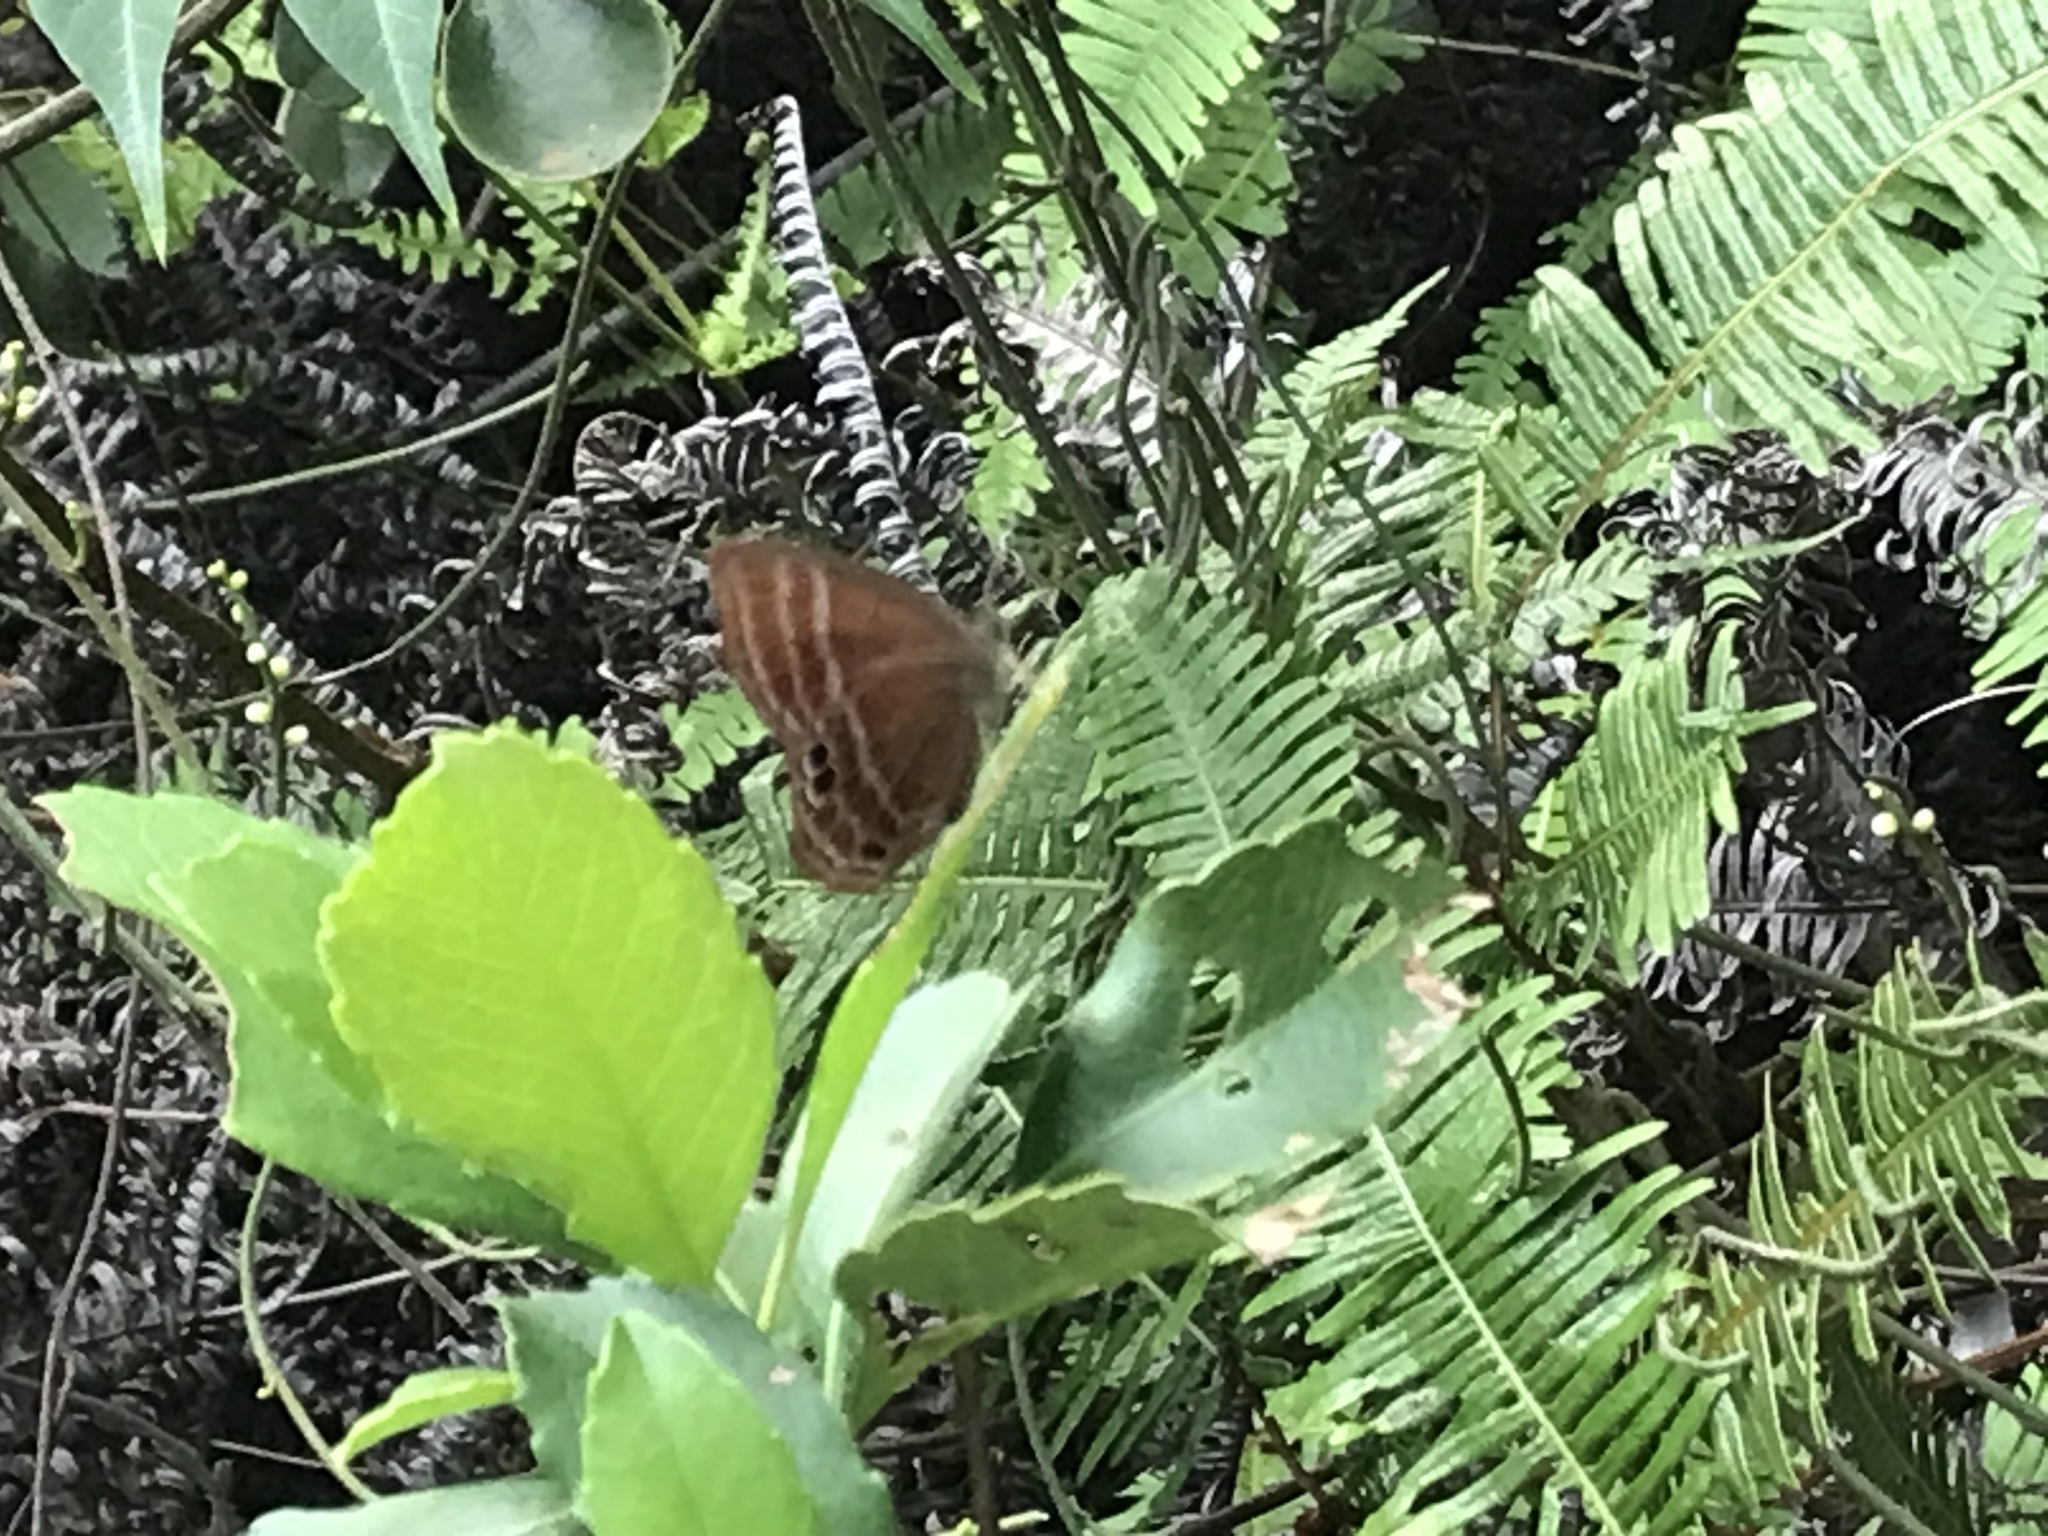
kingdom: Animalia
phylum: Arthropoda
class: Insecta
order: Lepidoptera
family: Lycaenidae
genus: Abisara
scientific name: Abisara echeria
